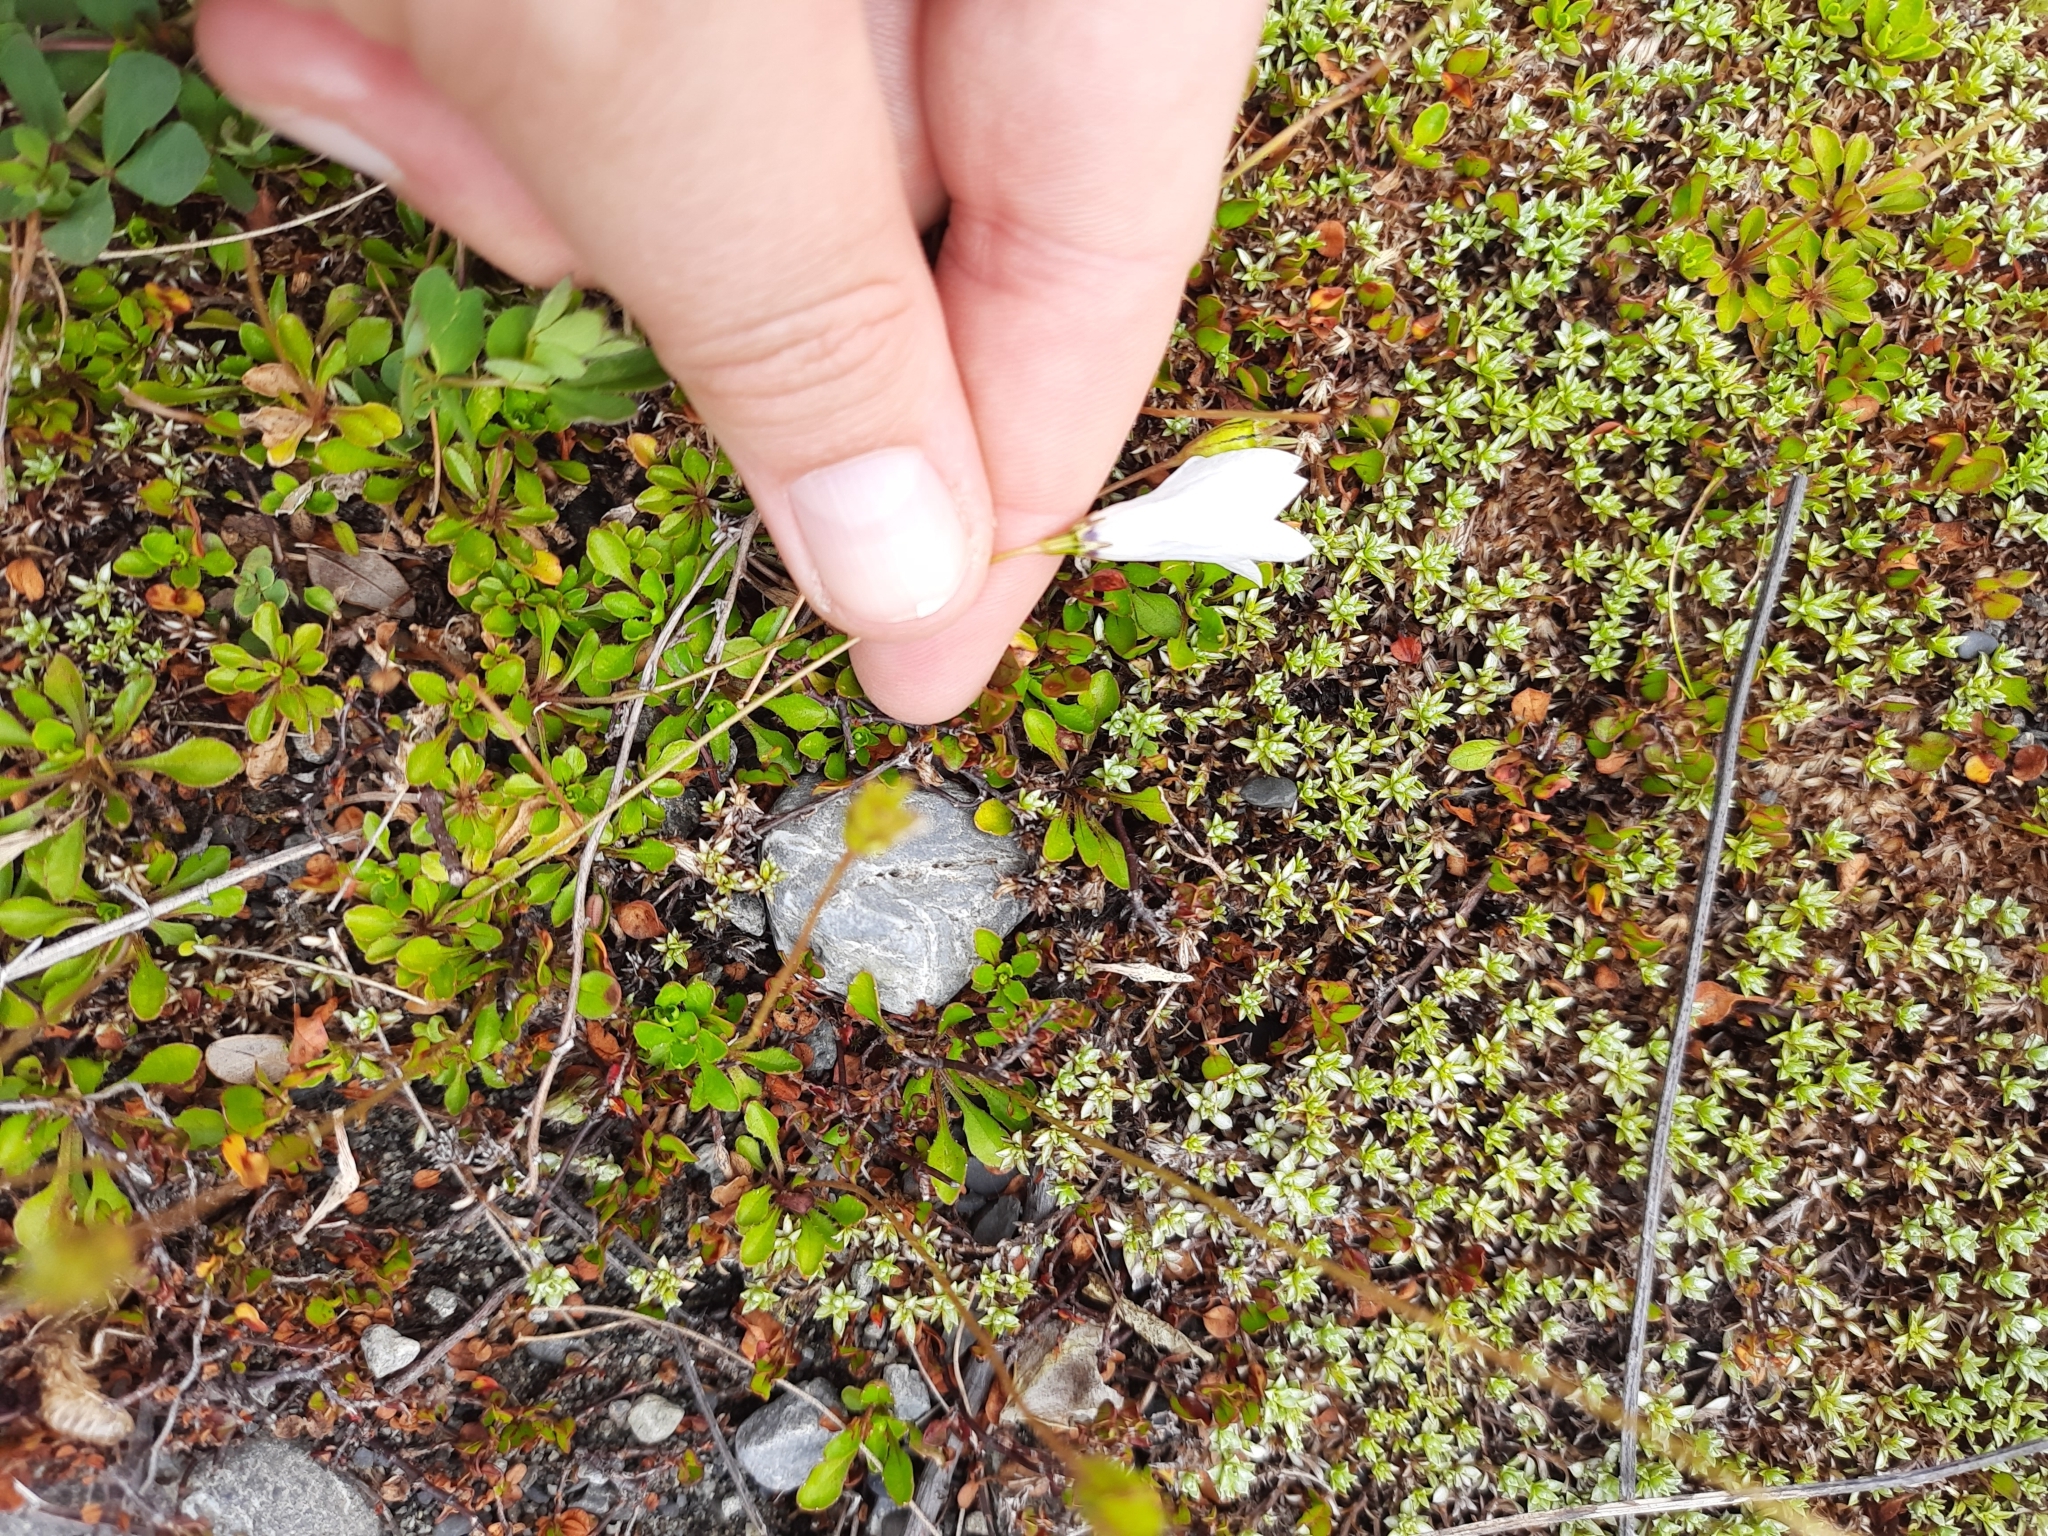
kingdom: Plantae
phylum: Tracheophyta
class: Magnoliopsida
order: Asterales
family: Campanulaceae
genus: Wahlenbergia
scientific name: Wahlenbergia albomarginata
